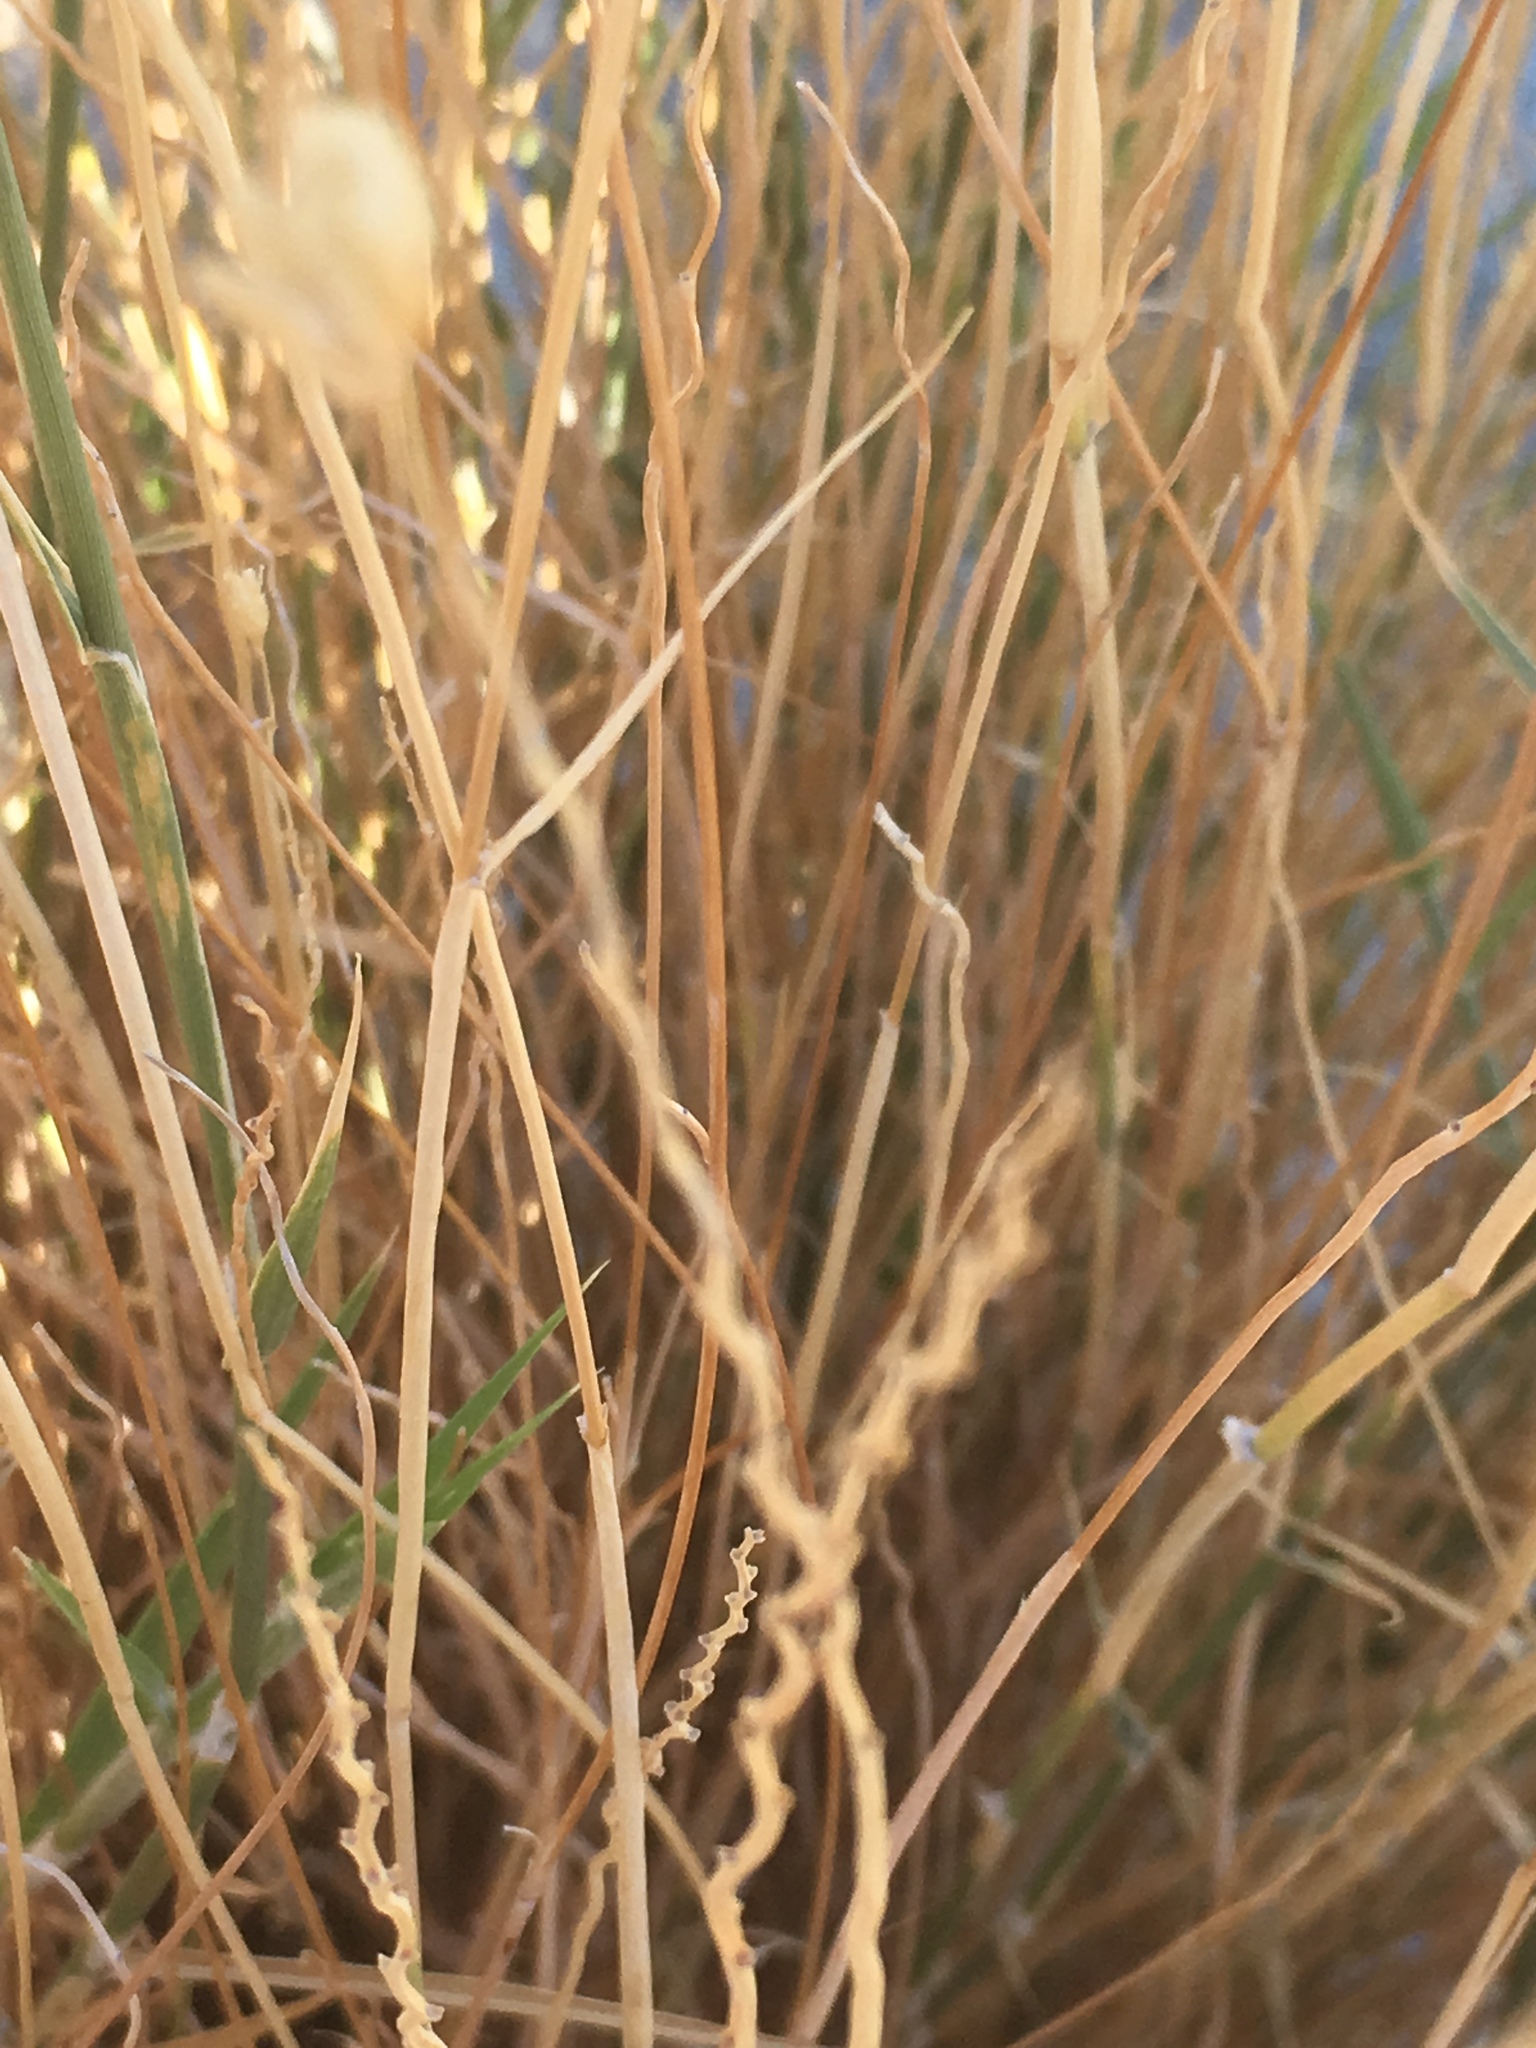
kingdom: Plantae
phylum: Tracheophyta
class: Liliopsida
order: Poales
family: Poaceae
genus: Hilaria
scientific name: Hilaria rigida
